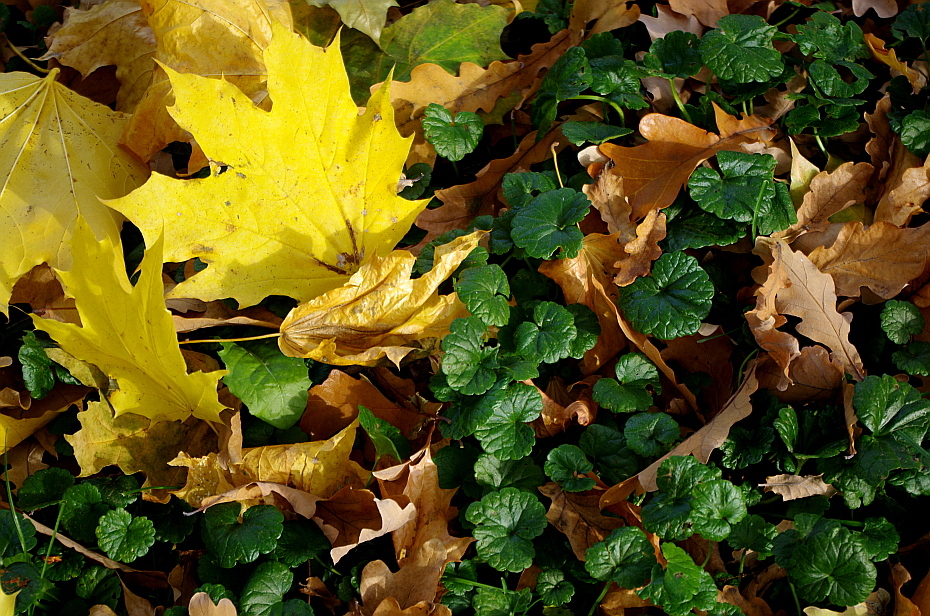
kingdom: Plantae
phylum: Tracheophyta
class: Magnoliopsida
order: Lamiales
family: Lamiaceae
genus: Glechoma
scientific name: Glechoma hederacea
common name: Ground ivy
